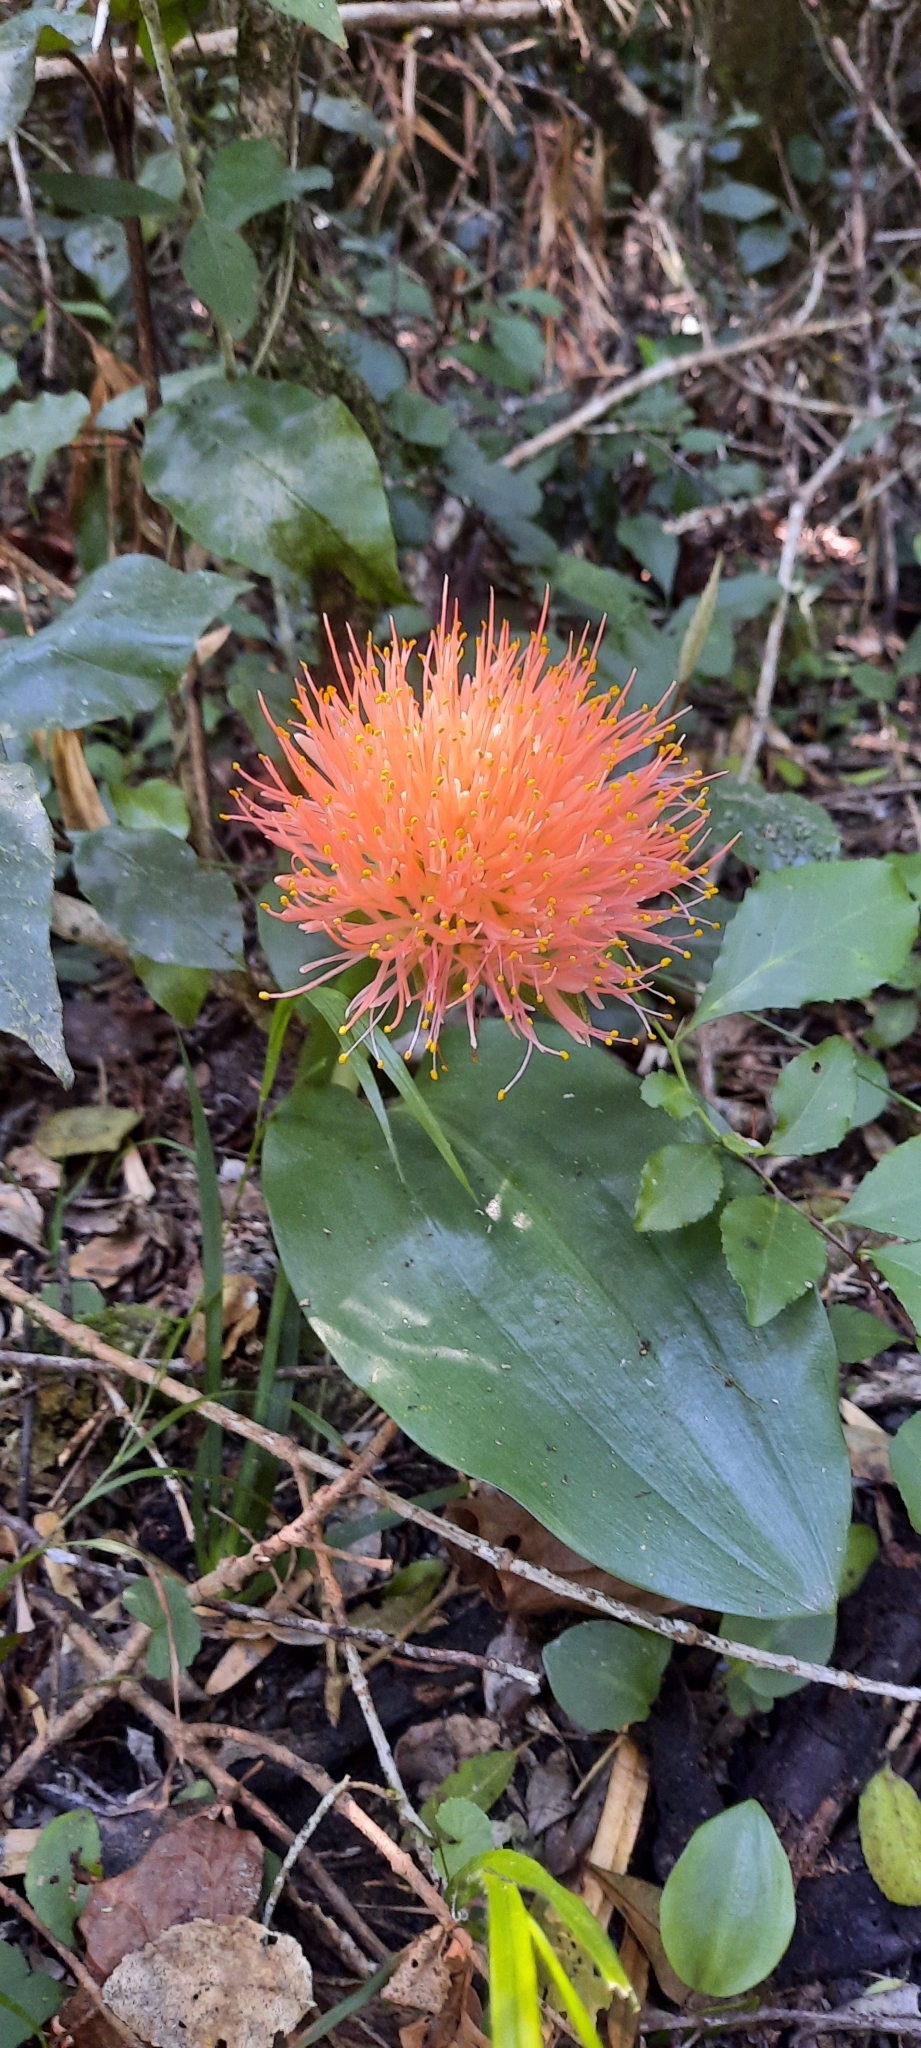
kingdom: Plantae
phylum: Tracheophyta
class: Liliopsida
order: Asparagales
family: Amaryllidaceae
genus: Scadoxus
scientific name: Scadoxus puniceus
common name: Royal-paintbrush
